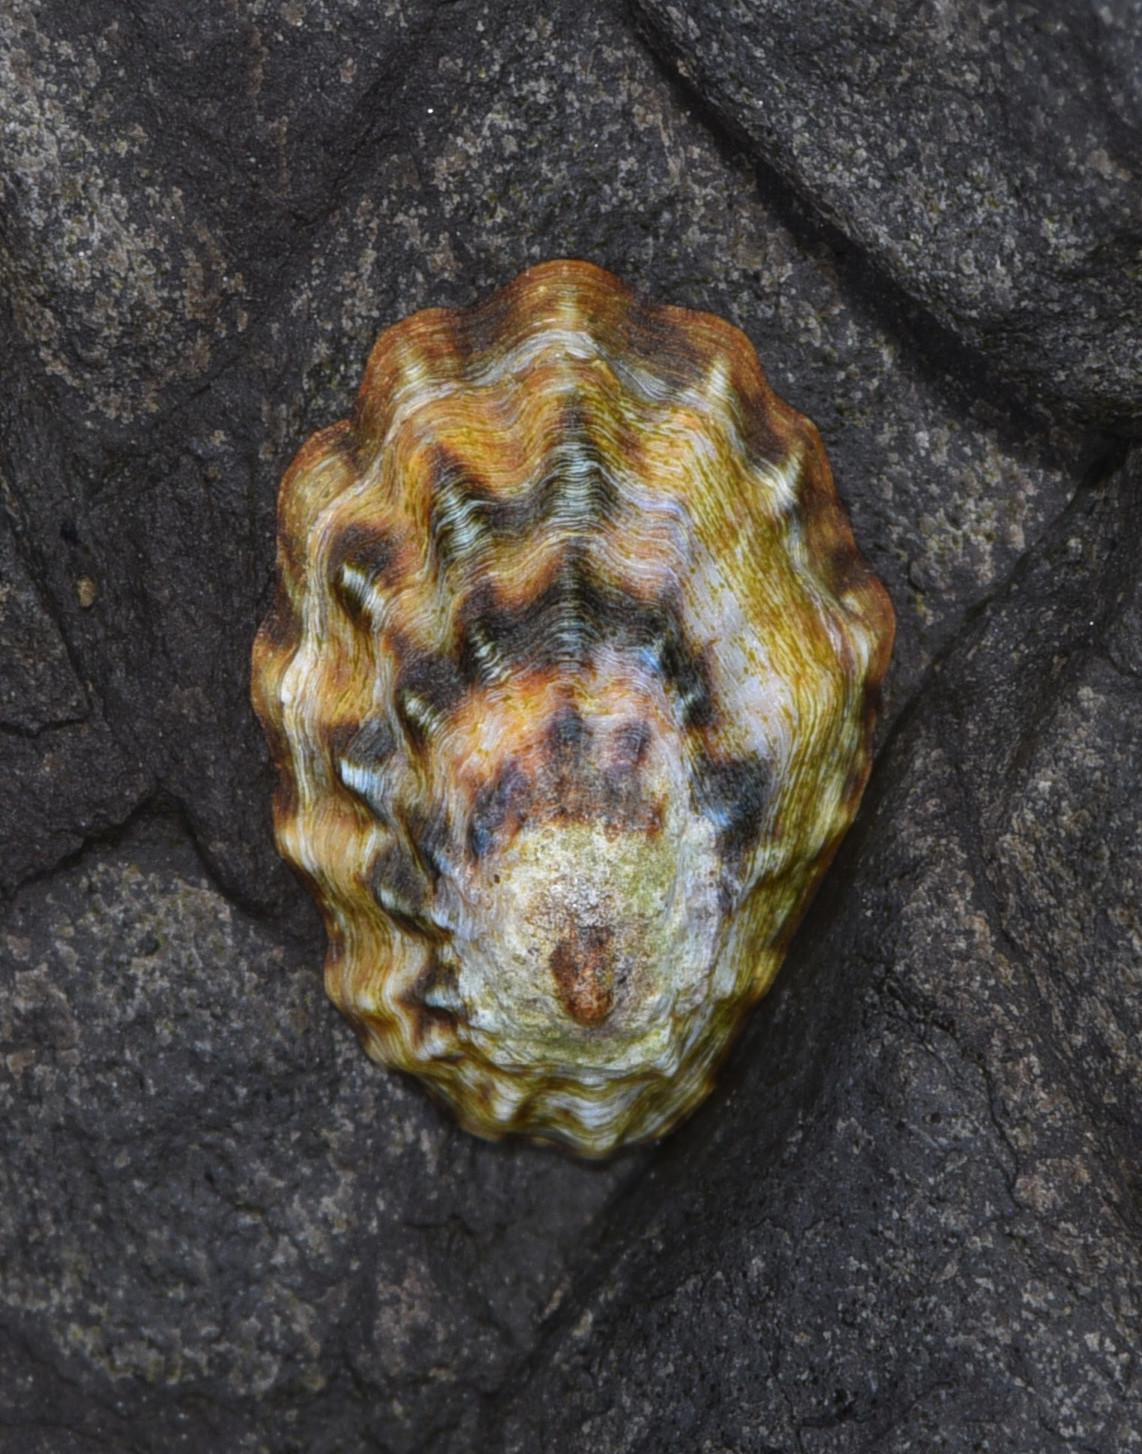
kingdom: Animalia
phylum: Mollusca
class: Gastropoda
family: Lottiidae
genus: Lottia
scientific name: Lottia scabra
